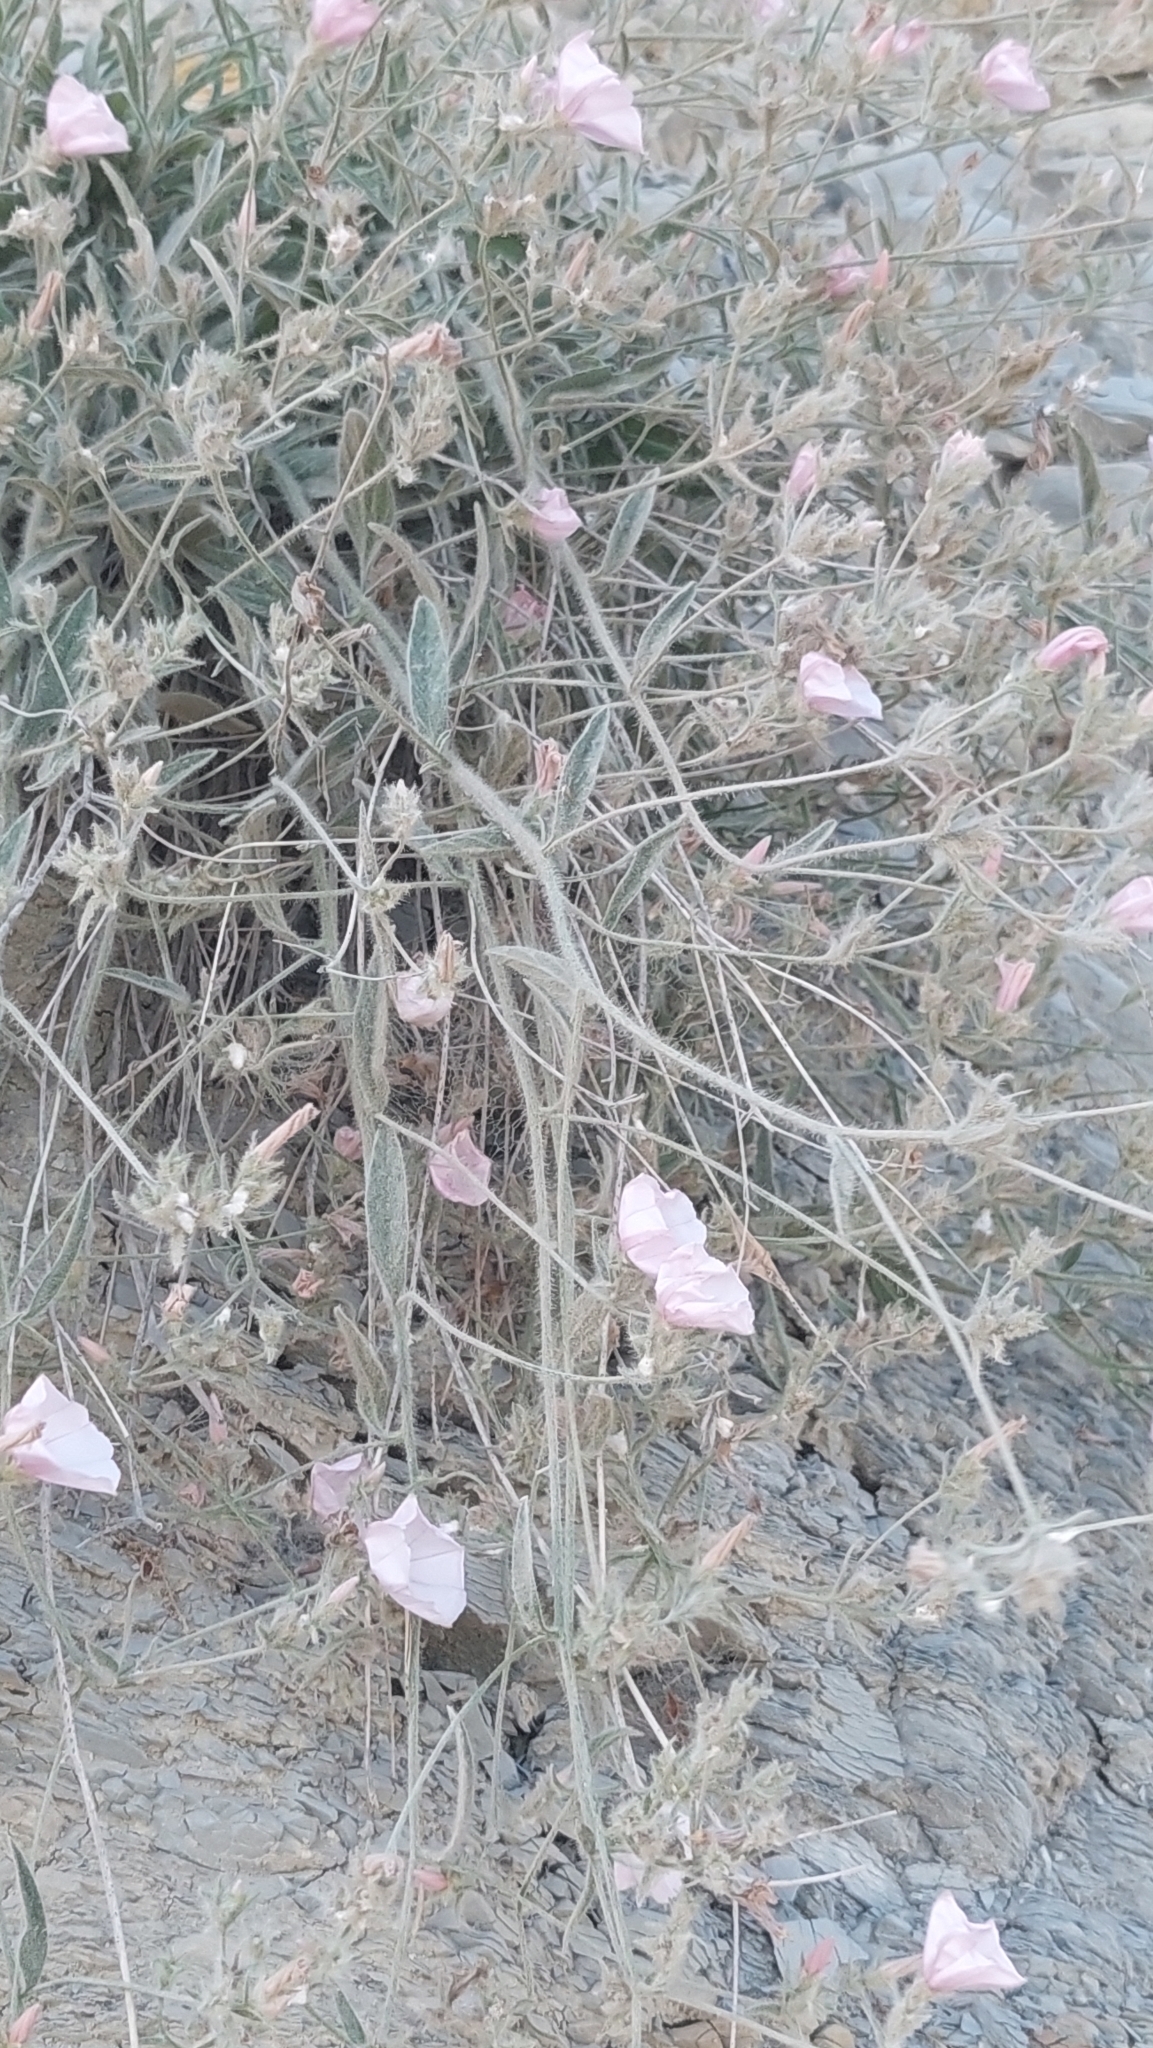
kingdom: Plantae
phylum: Tracheophyta
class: Magnoliopsida
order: Solanales
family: Convolvulaceae
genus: Convolvulus
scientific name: Convolvulus cantabrica
